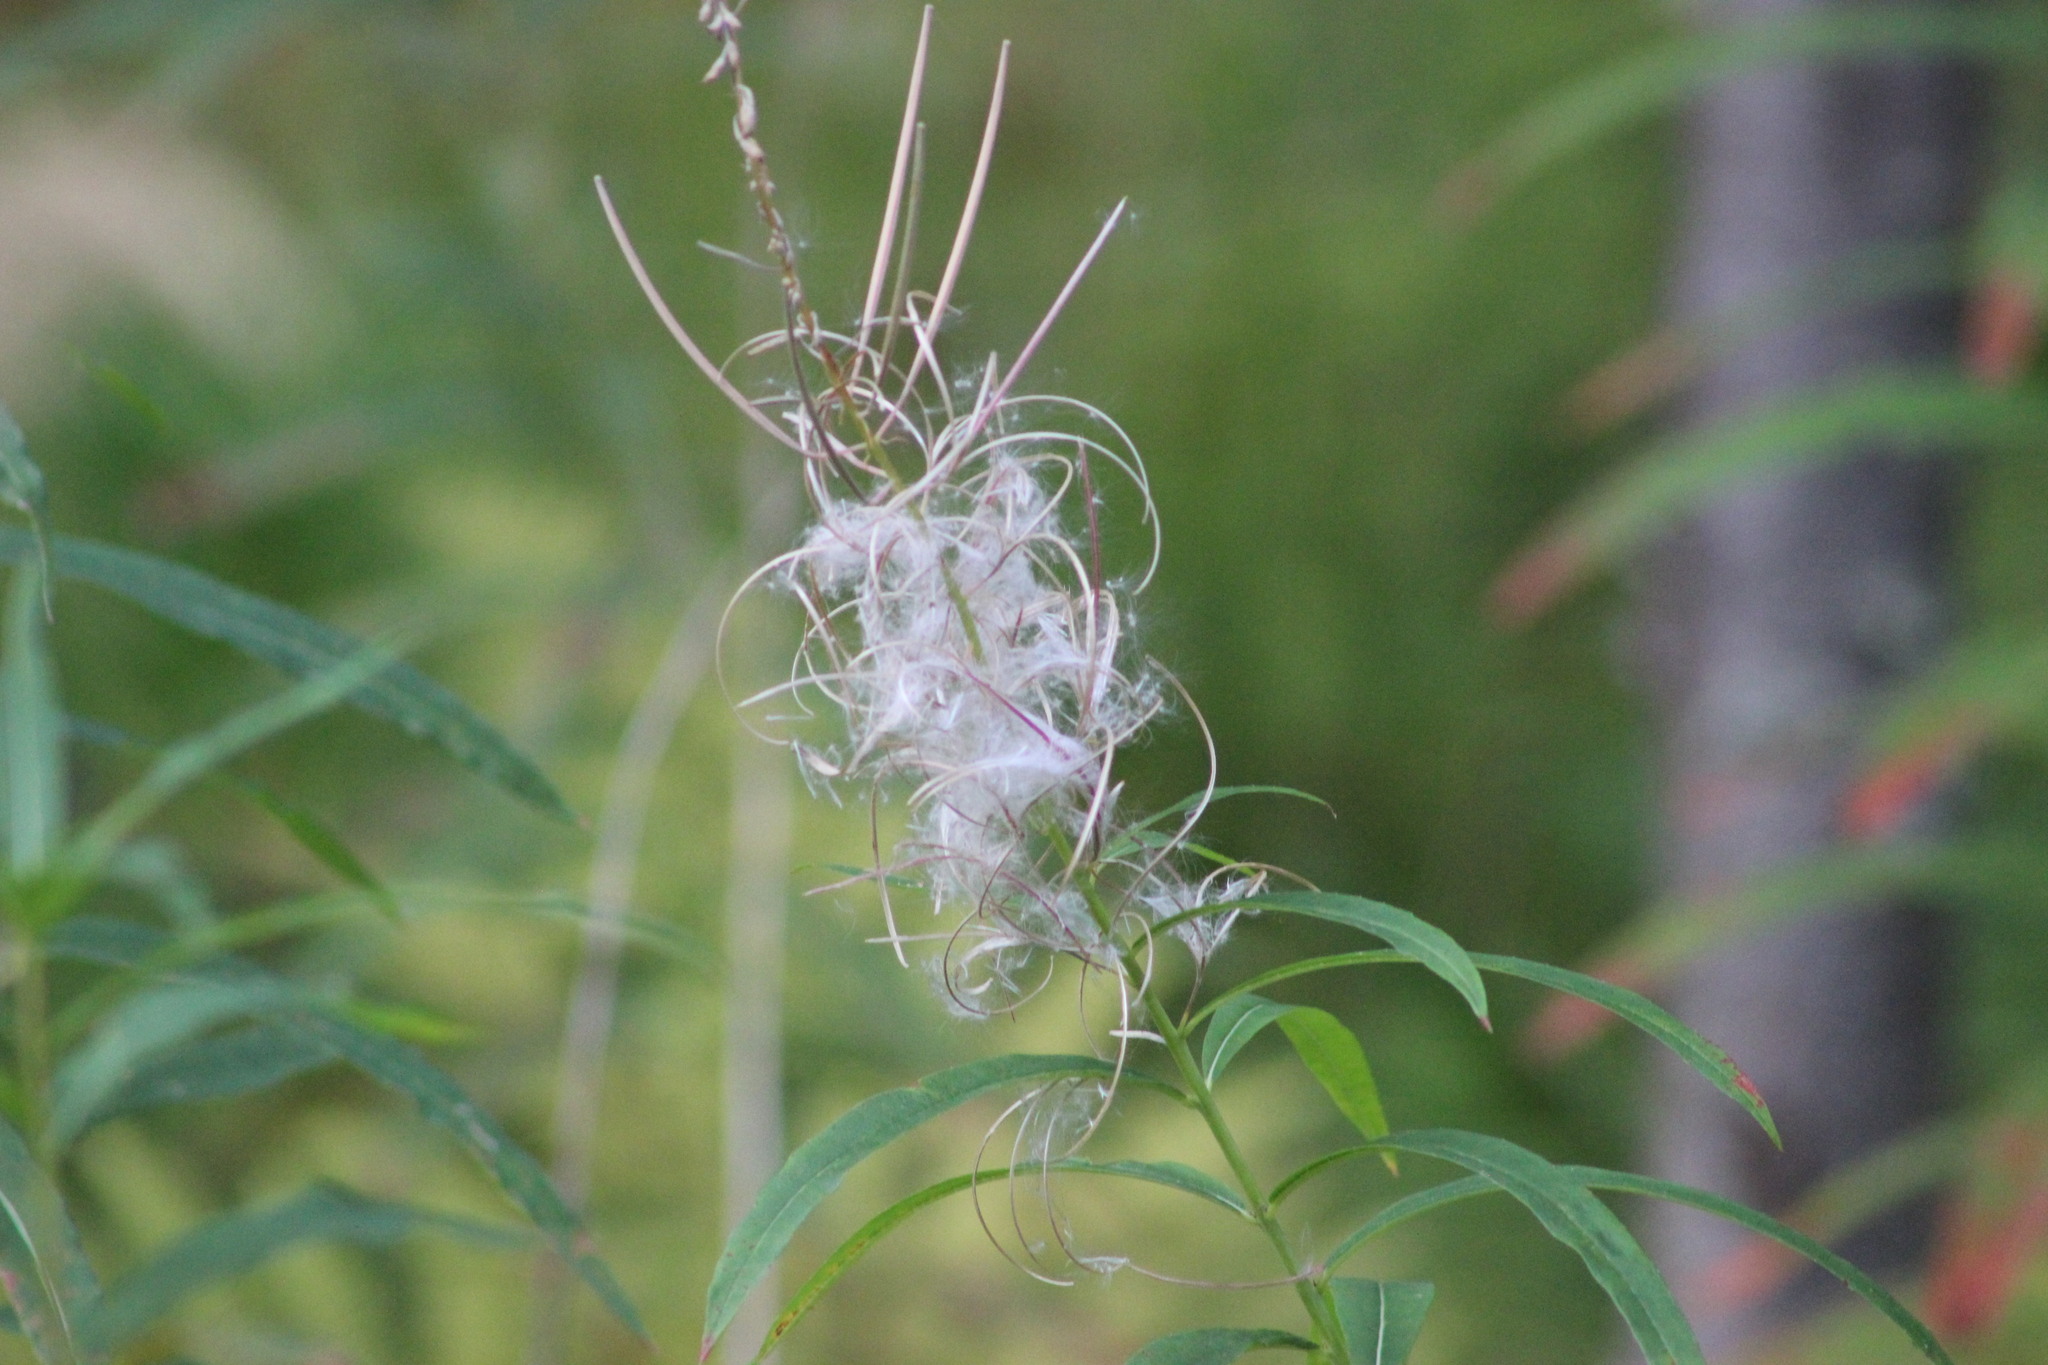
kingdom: Plantae
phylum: Tracheophyta
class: Magnoliopsida
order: Myrtales
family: Onagraceae
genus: Chamaenerion
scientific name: Chamaenerion angustifolium
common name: Fireweed
